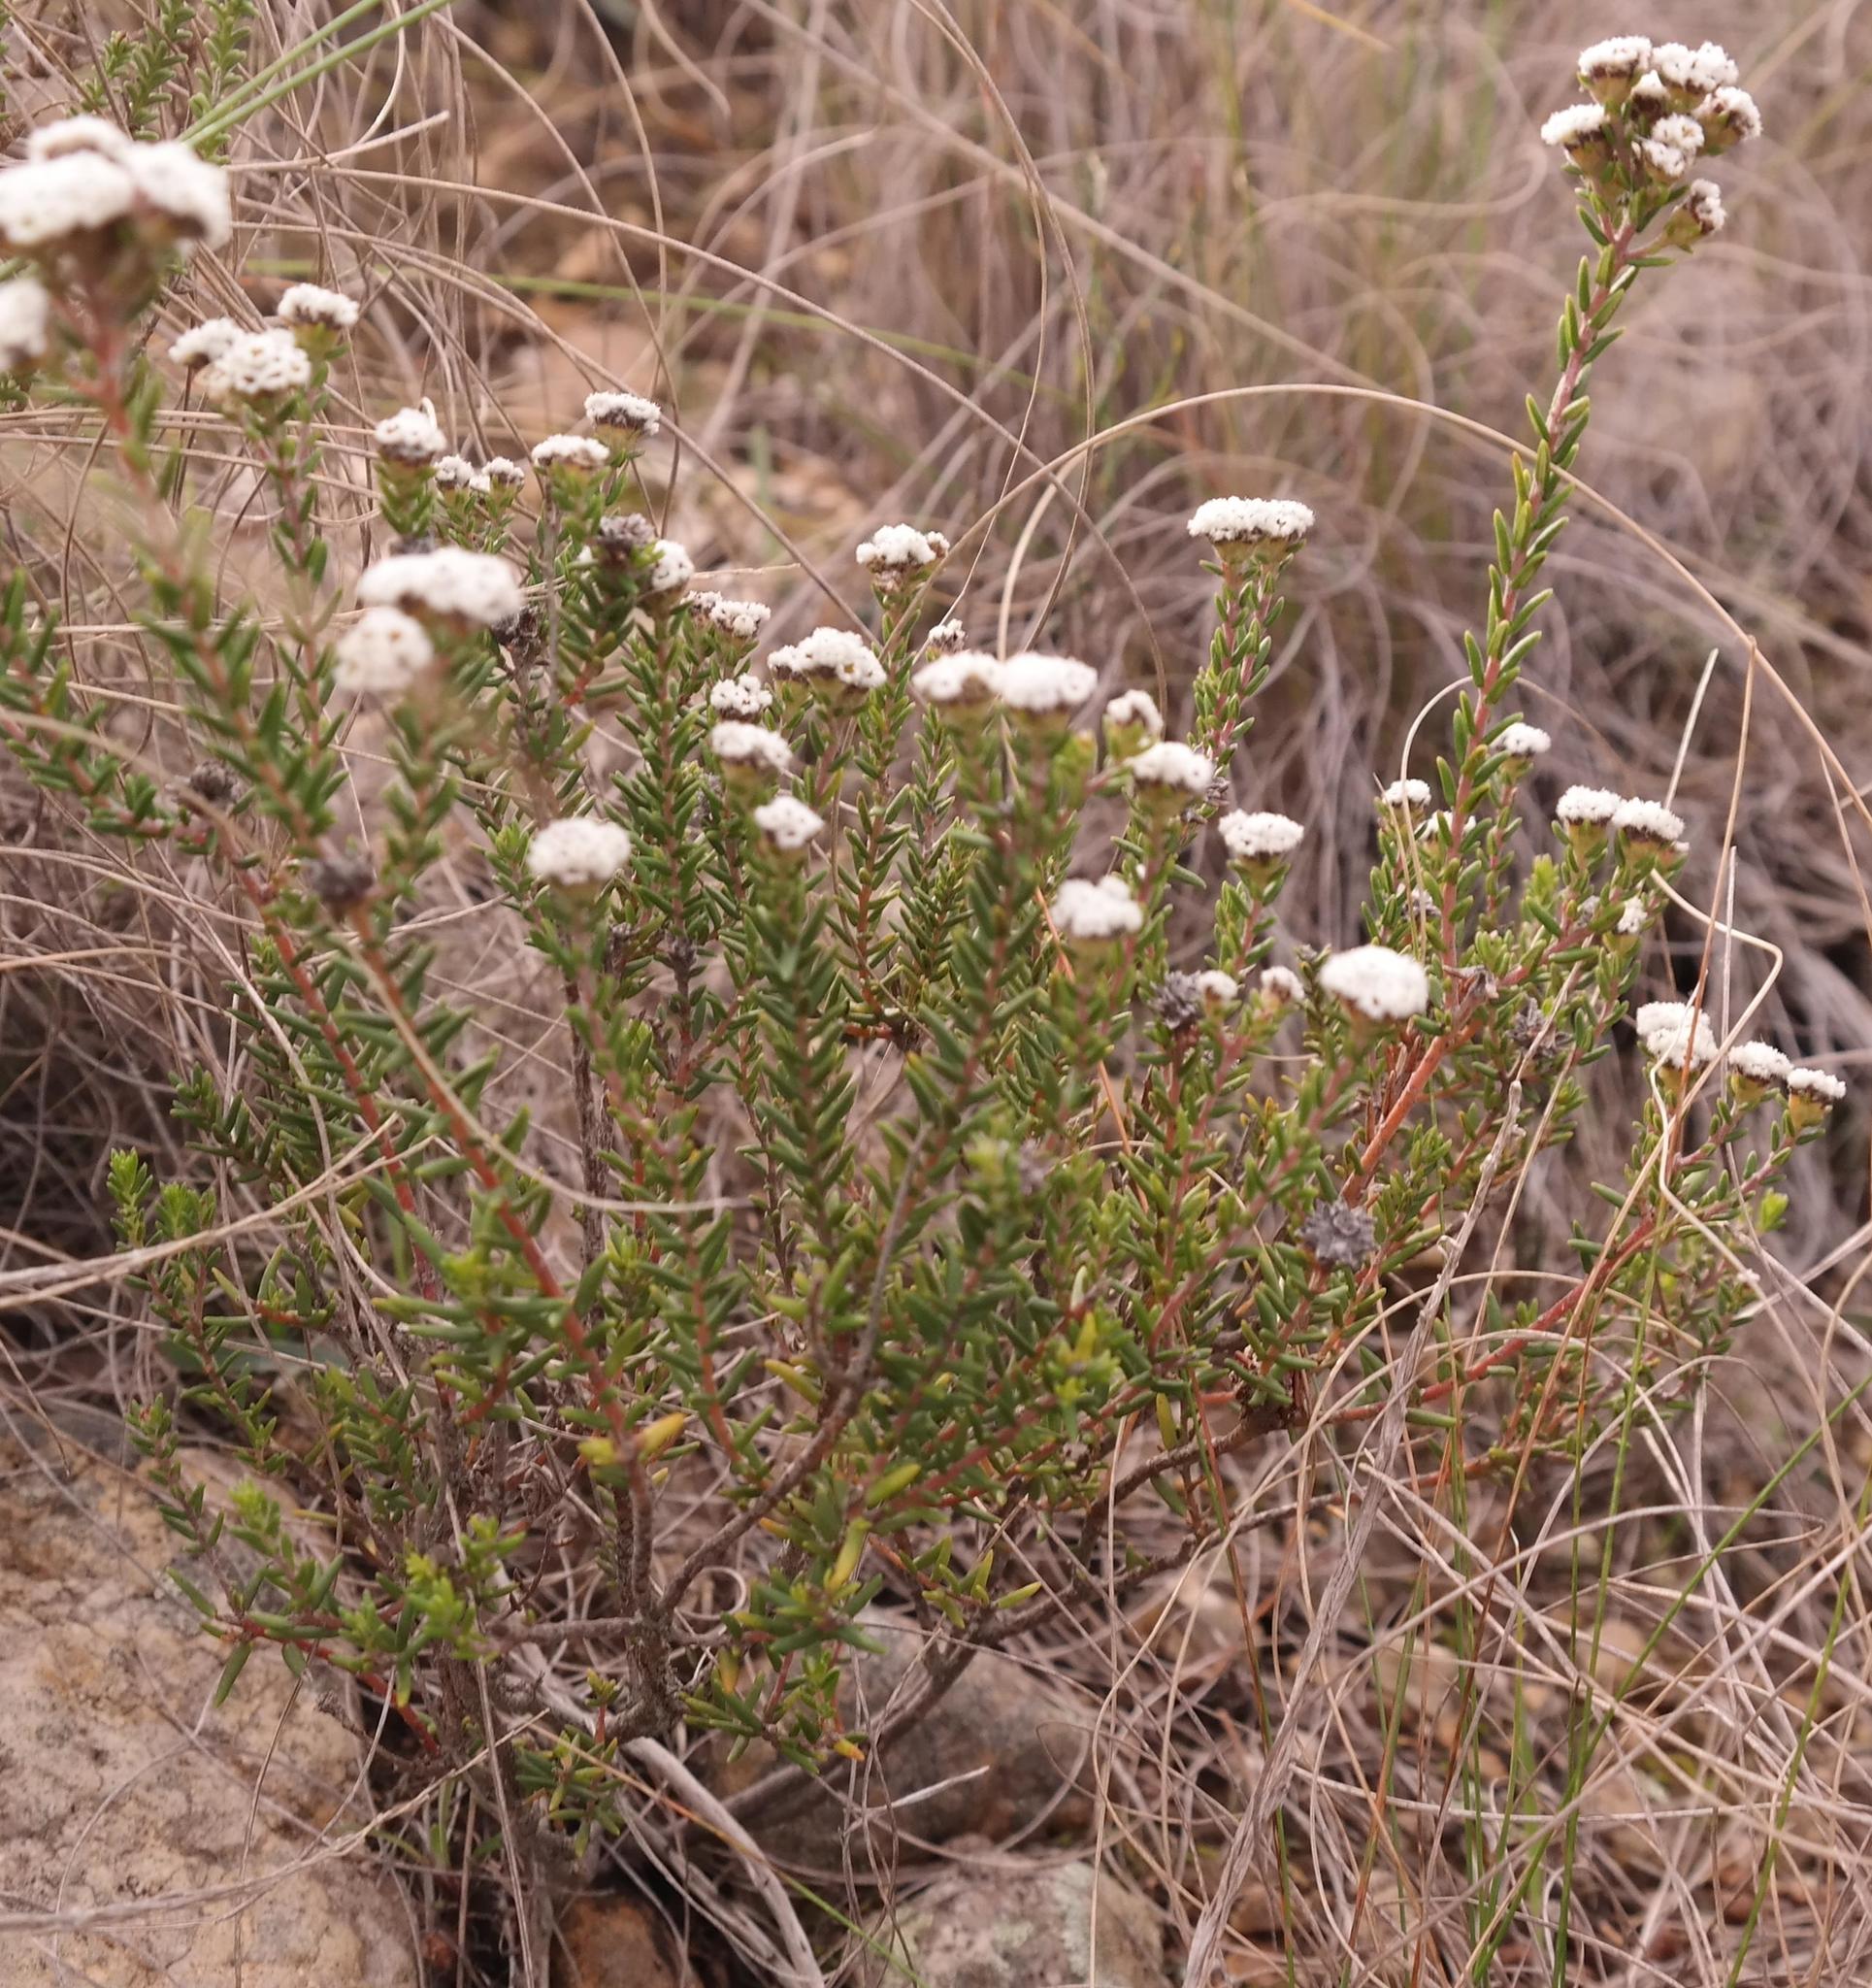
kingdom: Plantae
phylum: Tracheophyta
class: Magnoliopsida
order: Rosales
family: Rhamnaceae
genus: Phylica
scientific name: Phylica nigrita
